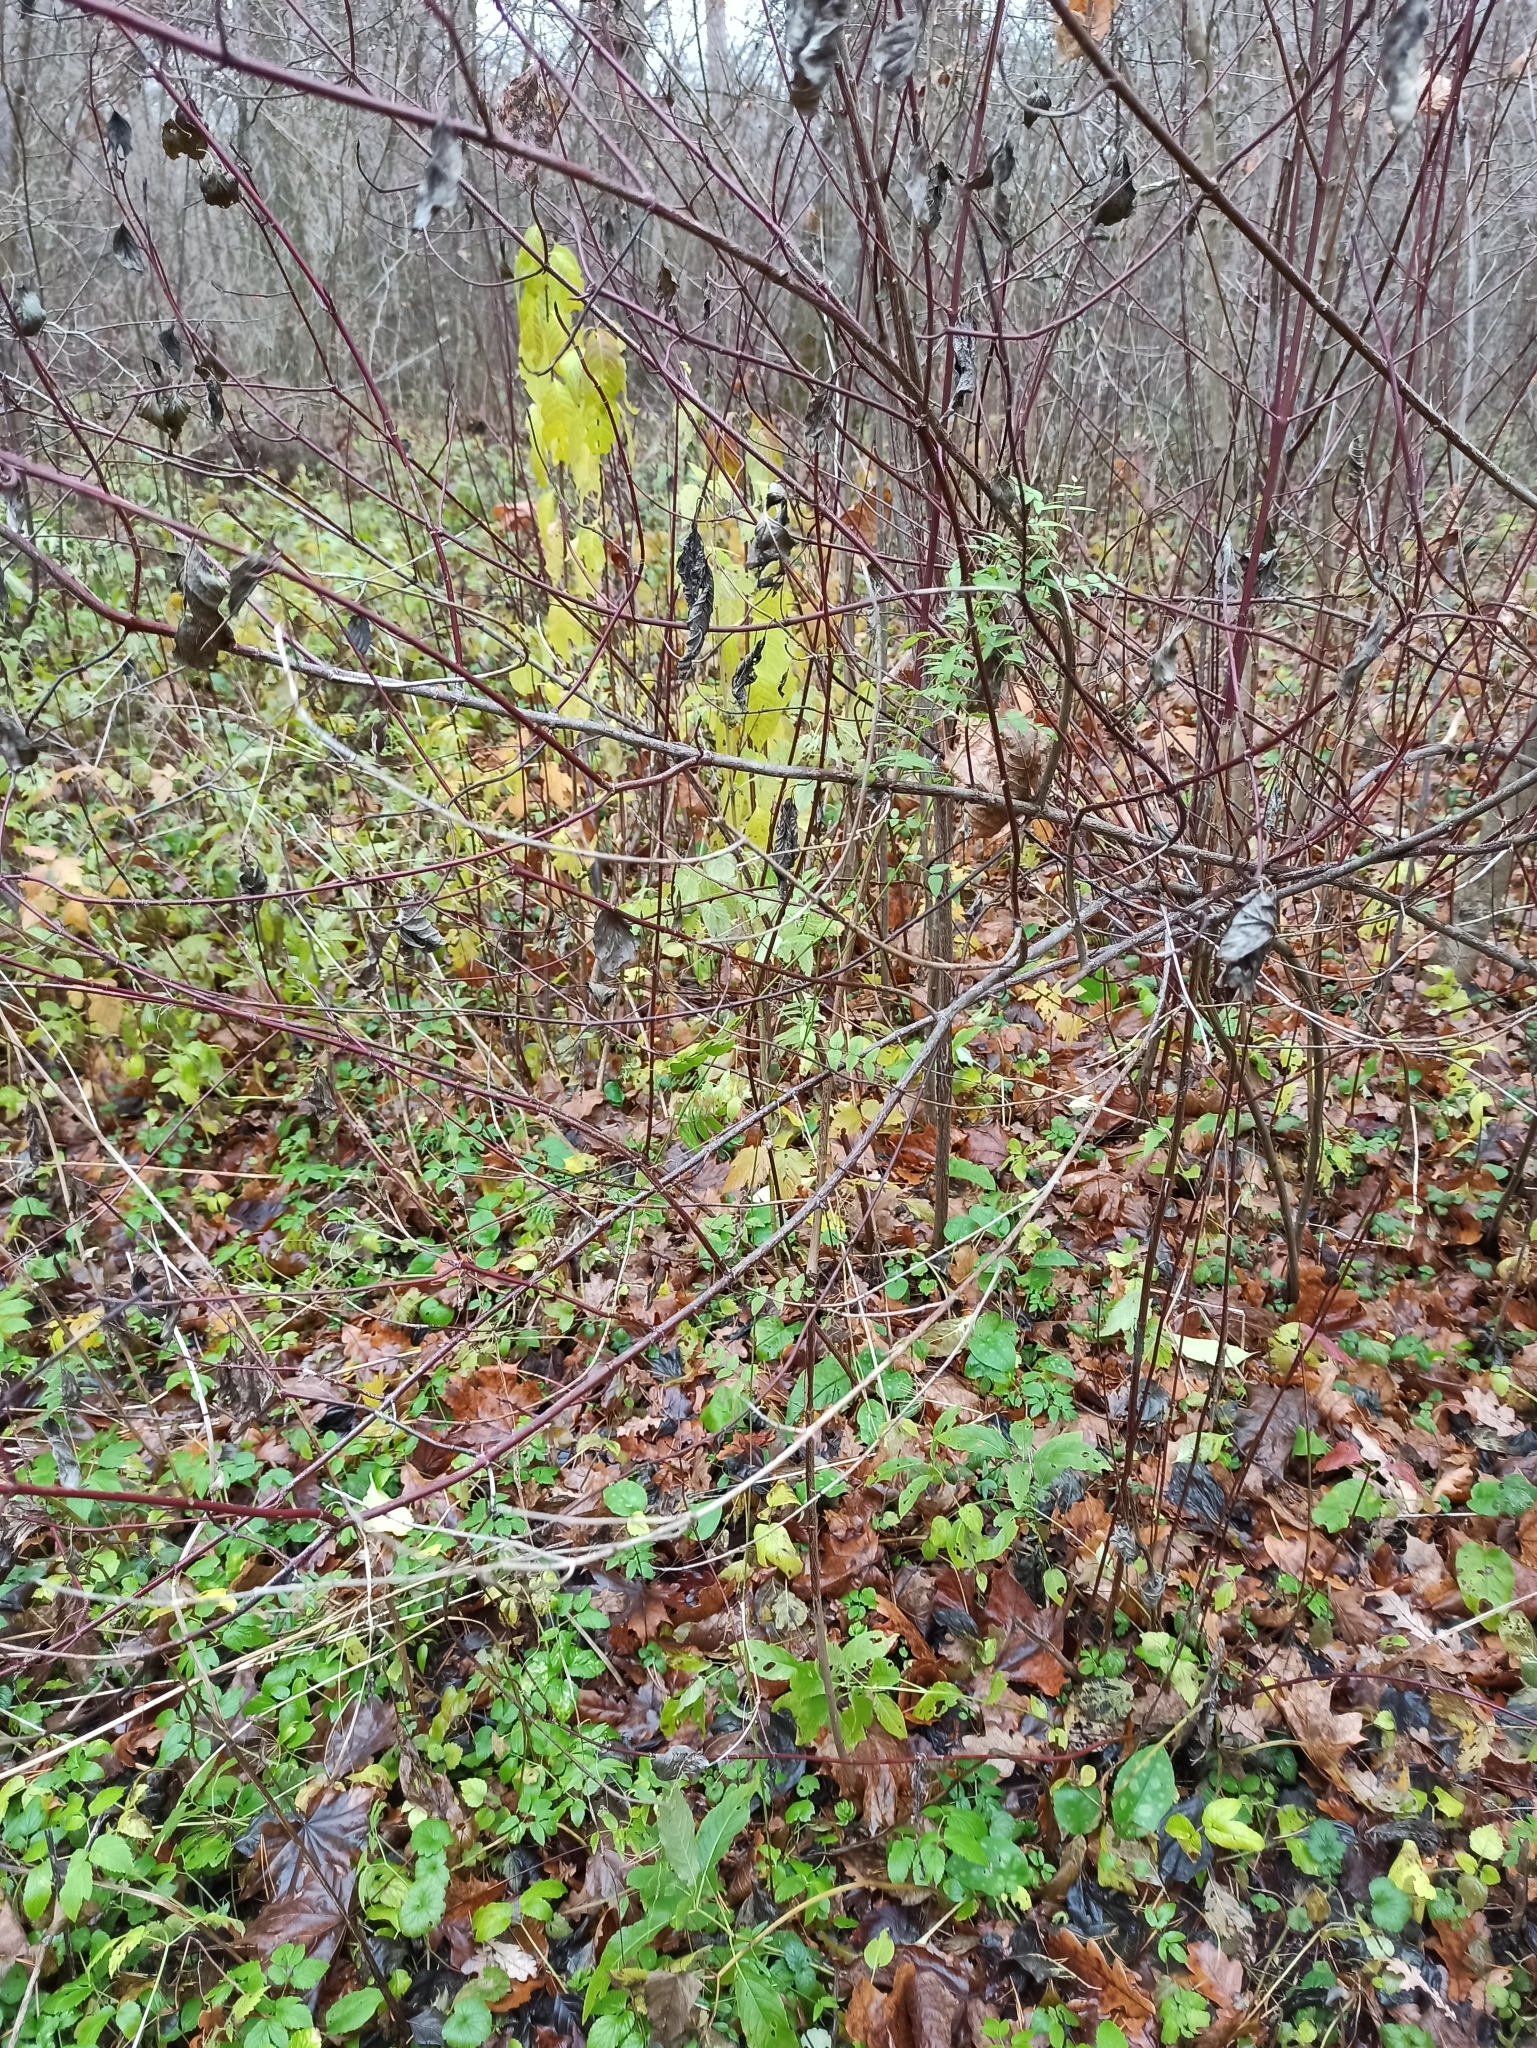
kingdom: Plantae
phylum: Tracheophyta
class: Magnoliopsida
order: Celastrales
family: Celastraceae
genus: Euonymus
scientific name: Euonymus europaeus
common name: Spindle
